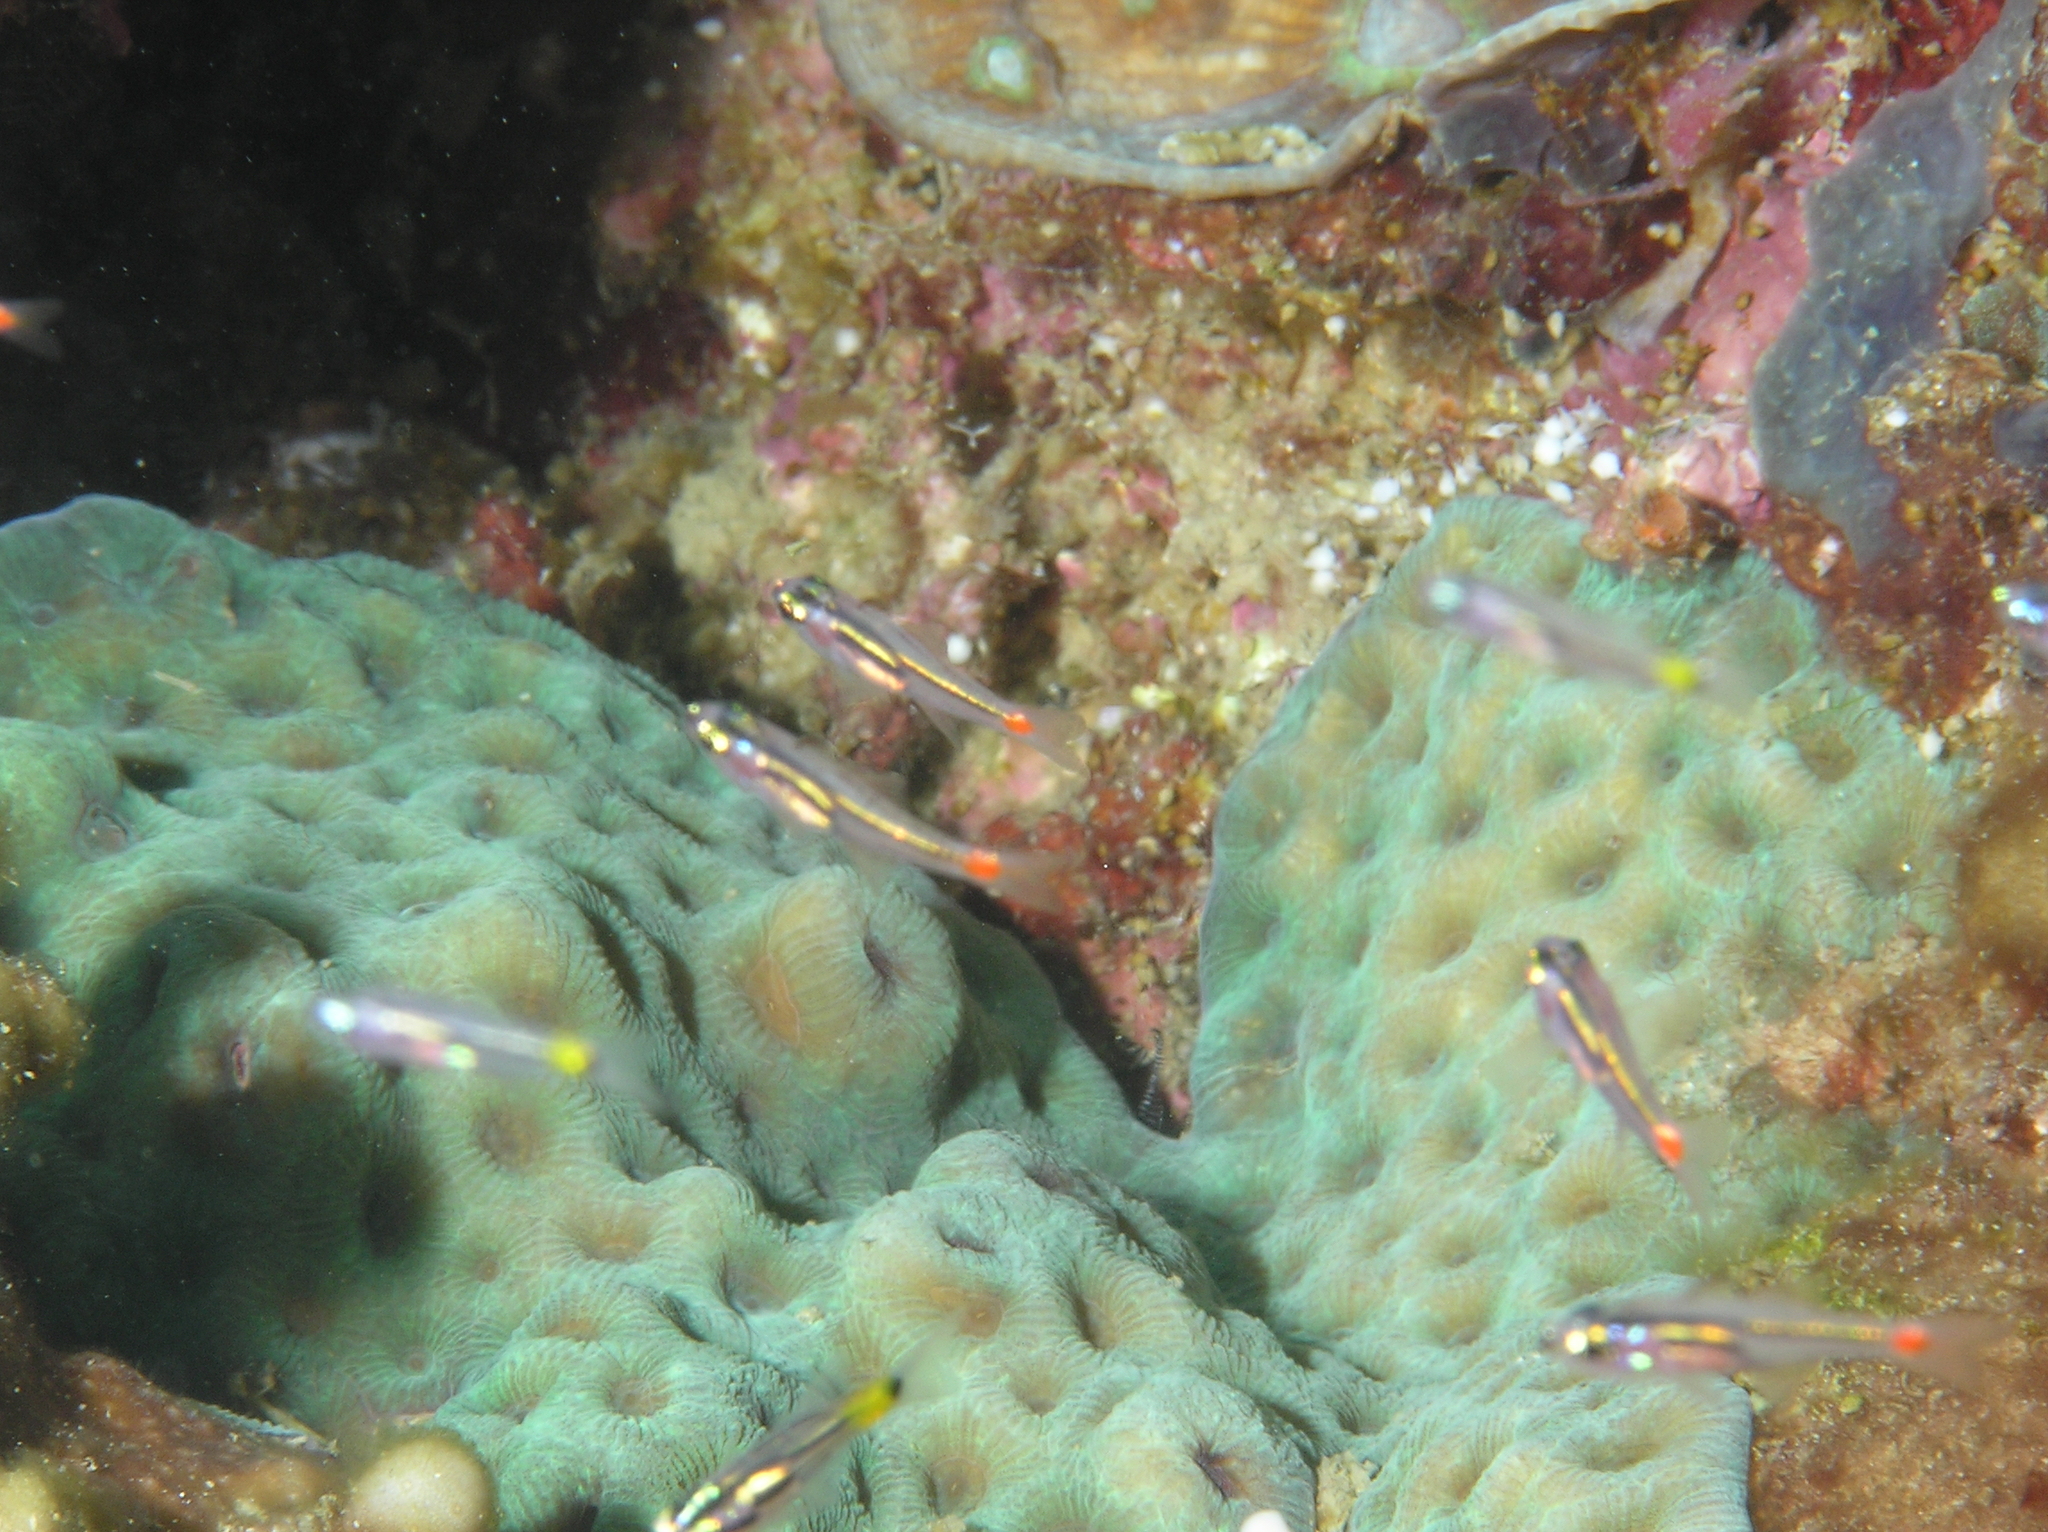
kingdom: Animalia
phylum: Chordata
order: Perciformes
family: Apogonidae
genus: Ostorhinchus
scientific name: Ostorhinchus parvulus
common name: Red-spot cardinalfish
